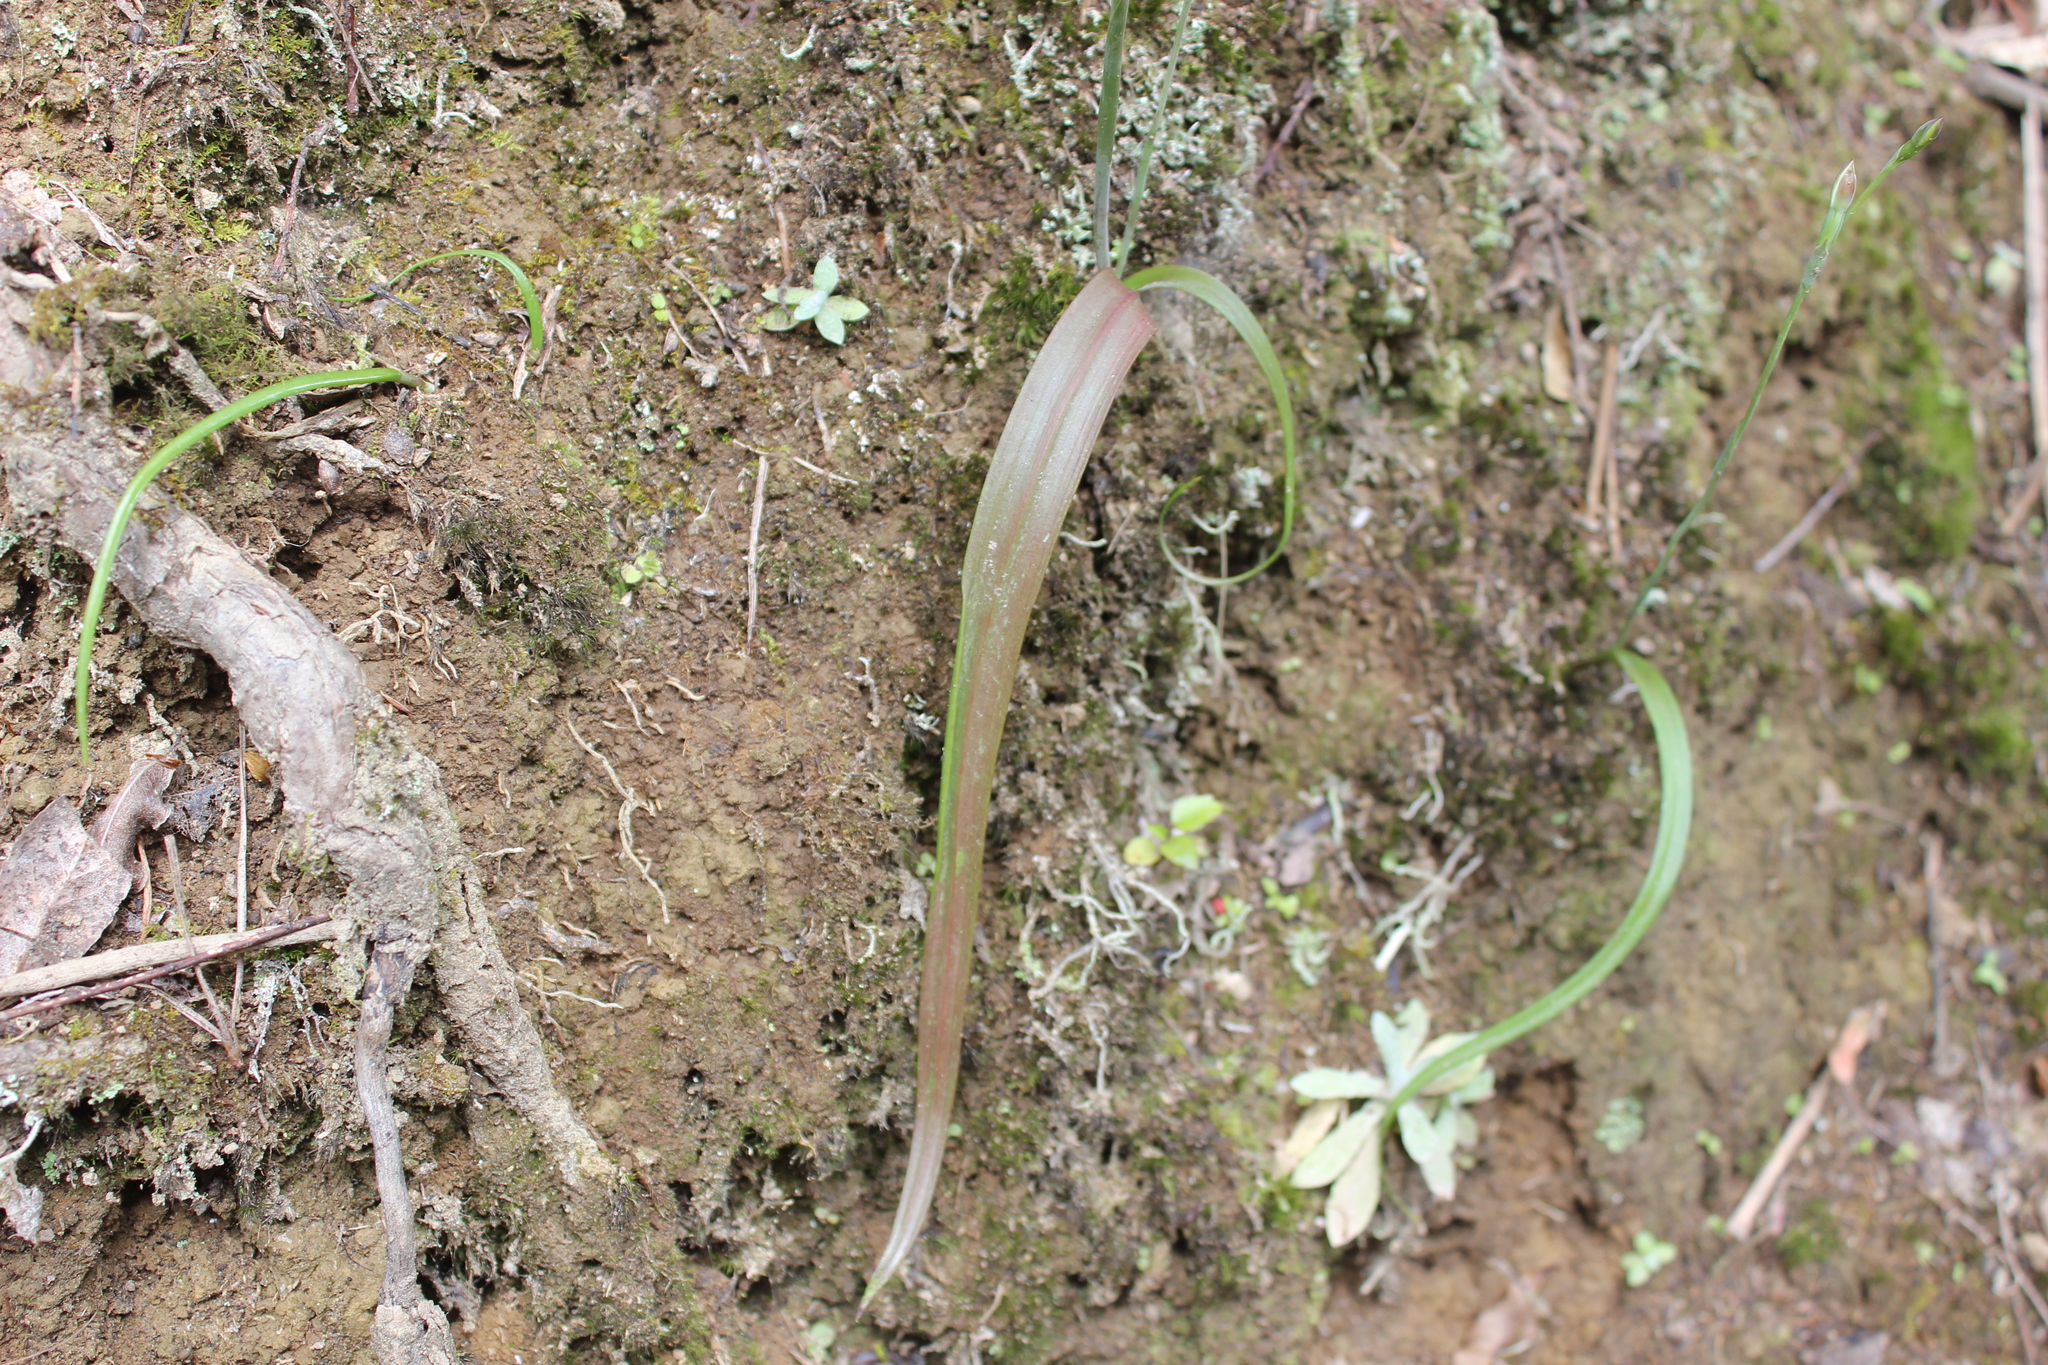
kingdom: Plantae
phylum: Tracheophyta
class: Liliopsida
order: Asparagales
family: Orchidaceae
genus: Thelymitra
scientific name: Thelymitra longifolia
